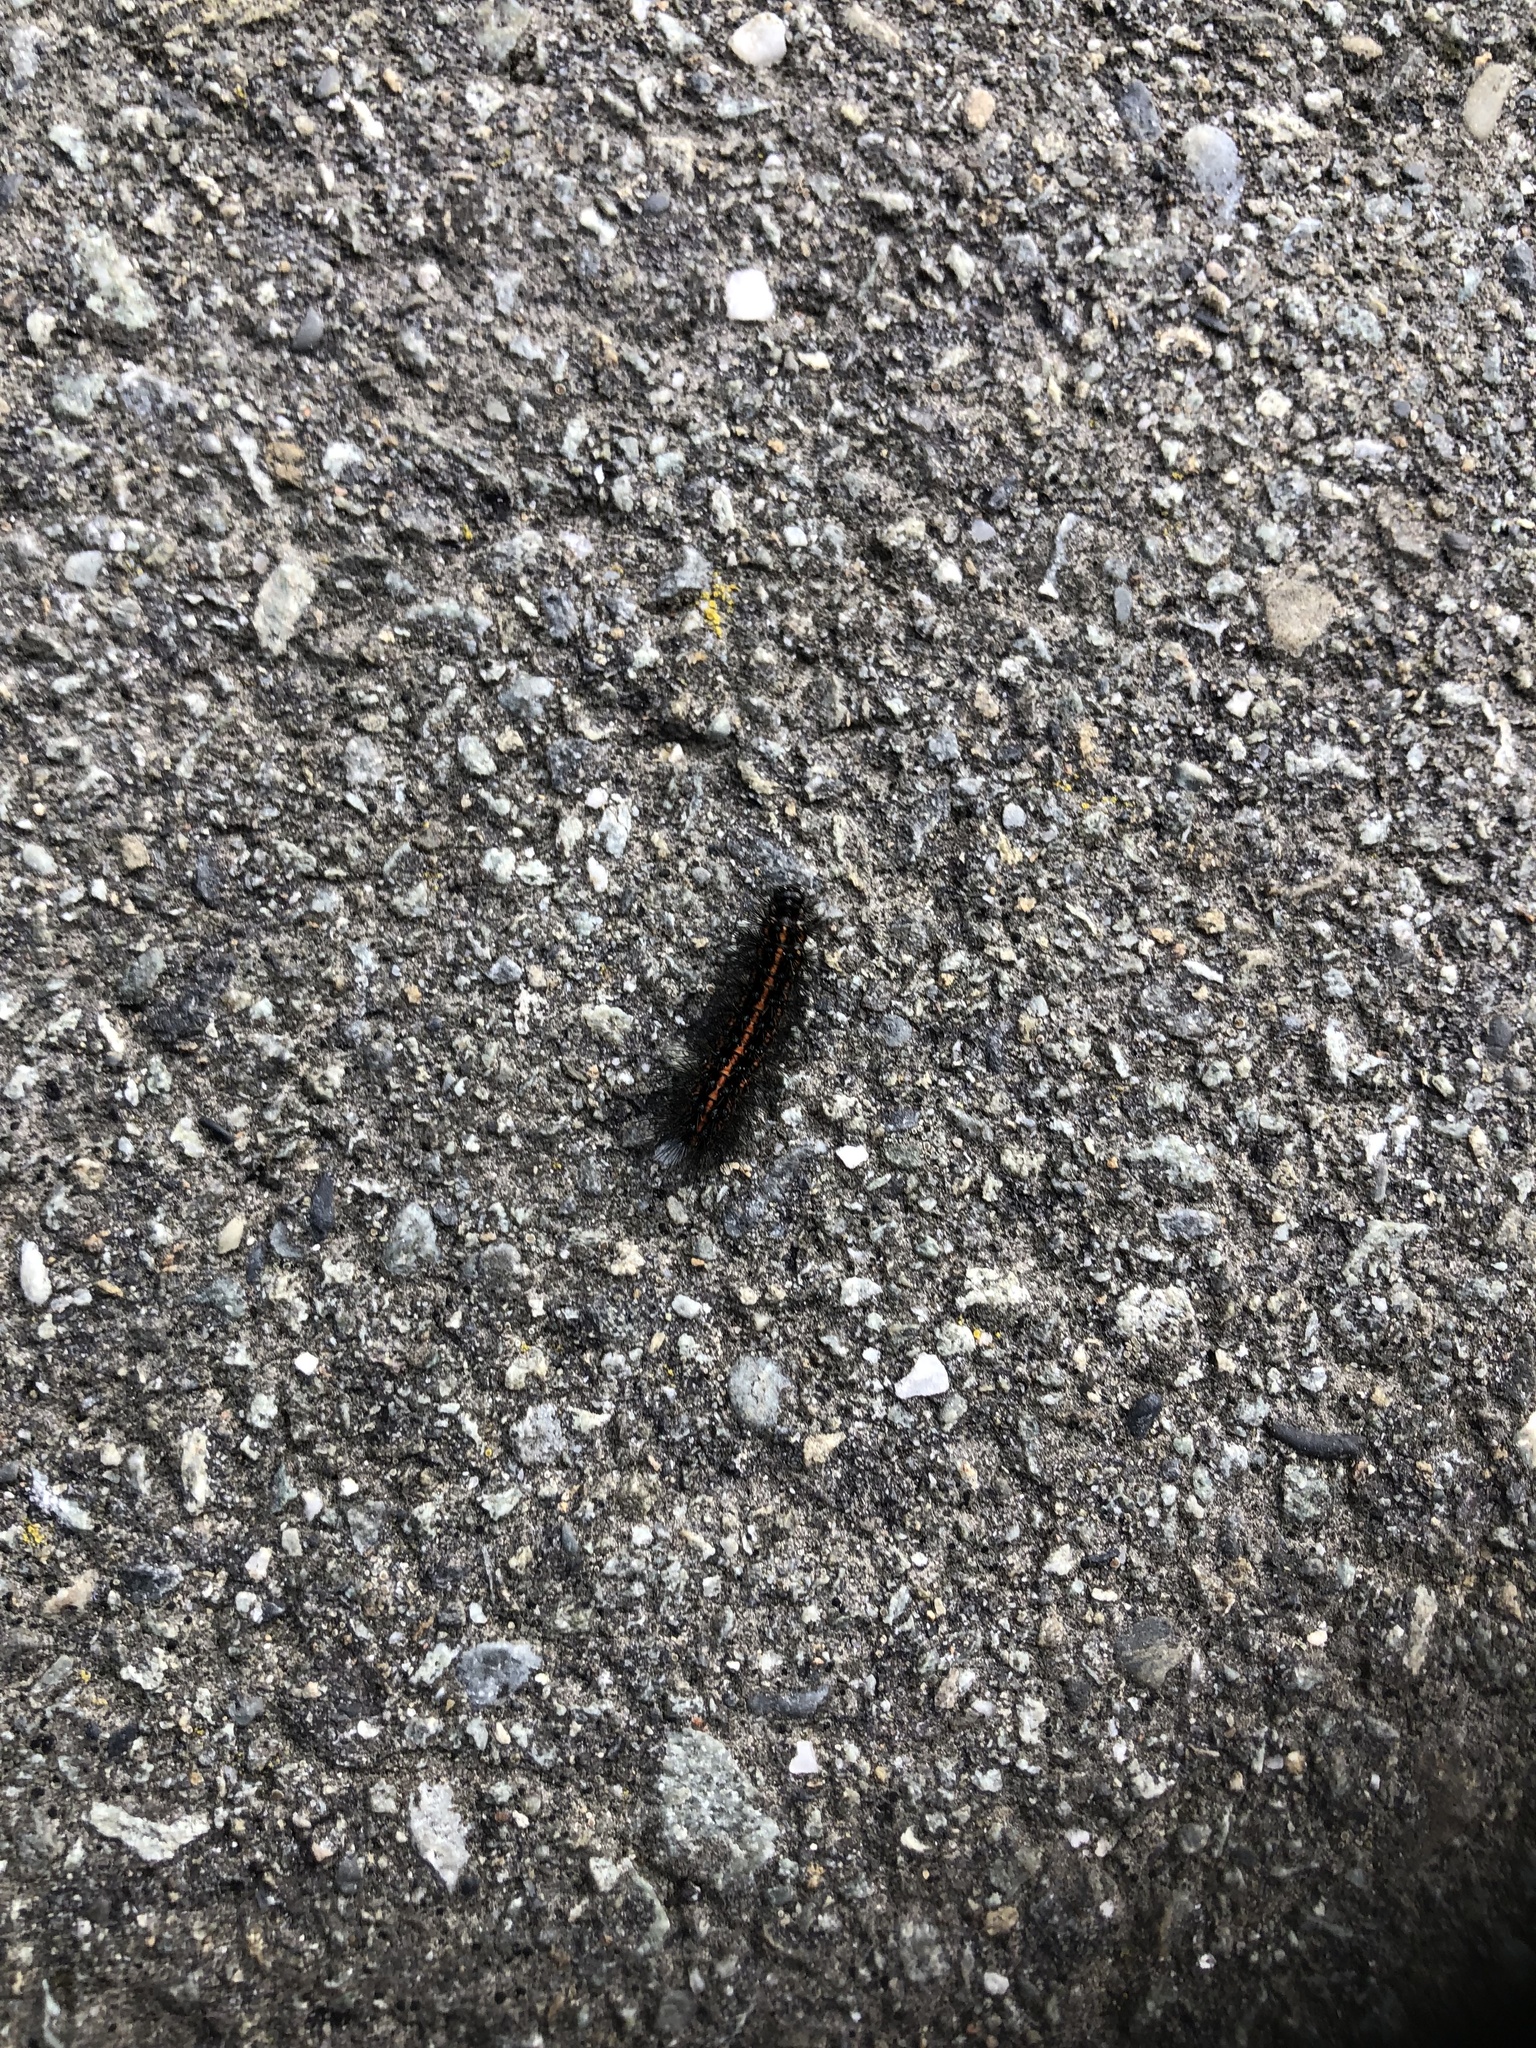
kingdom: Animalia
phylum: Arthropoda
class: Insecta
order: Lepidoptera
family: Erebidae
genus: Nyctemera
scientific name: Nyctemera annulatum
